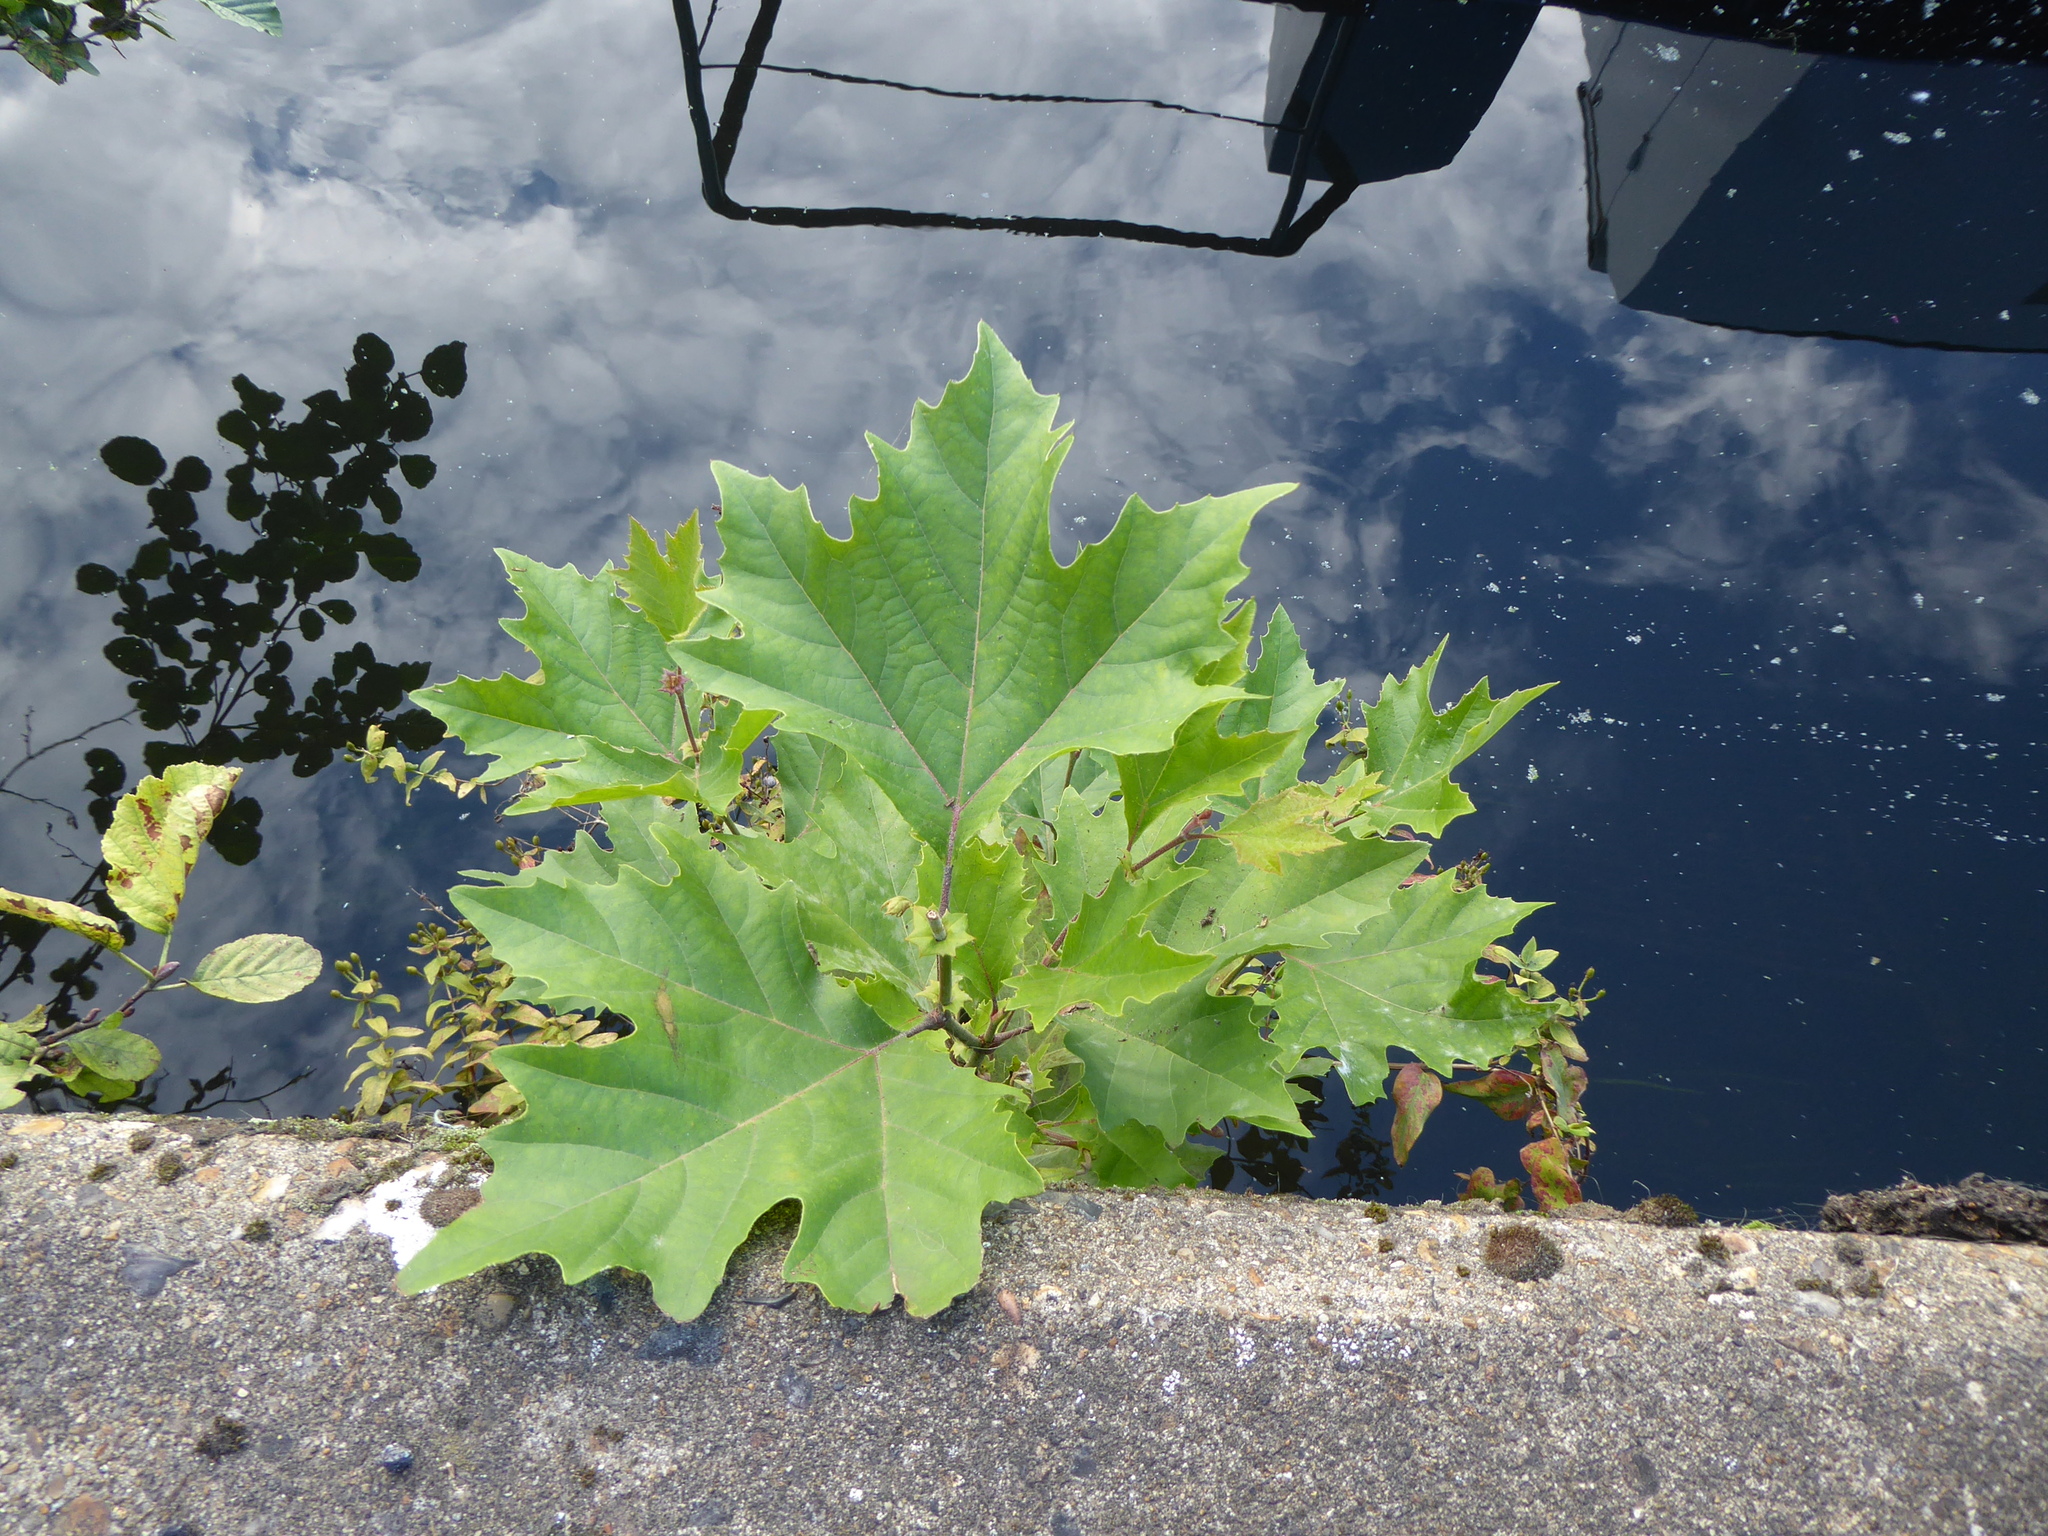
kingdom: Plantae
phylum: Tracheophyta
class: Magnoliopsida
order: Proteales
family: Platanaceae
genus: Platanus
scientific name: Platanus hispanica
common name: London plane
